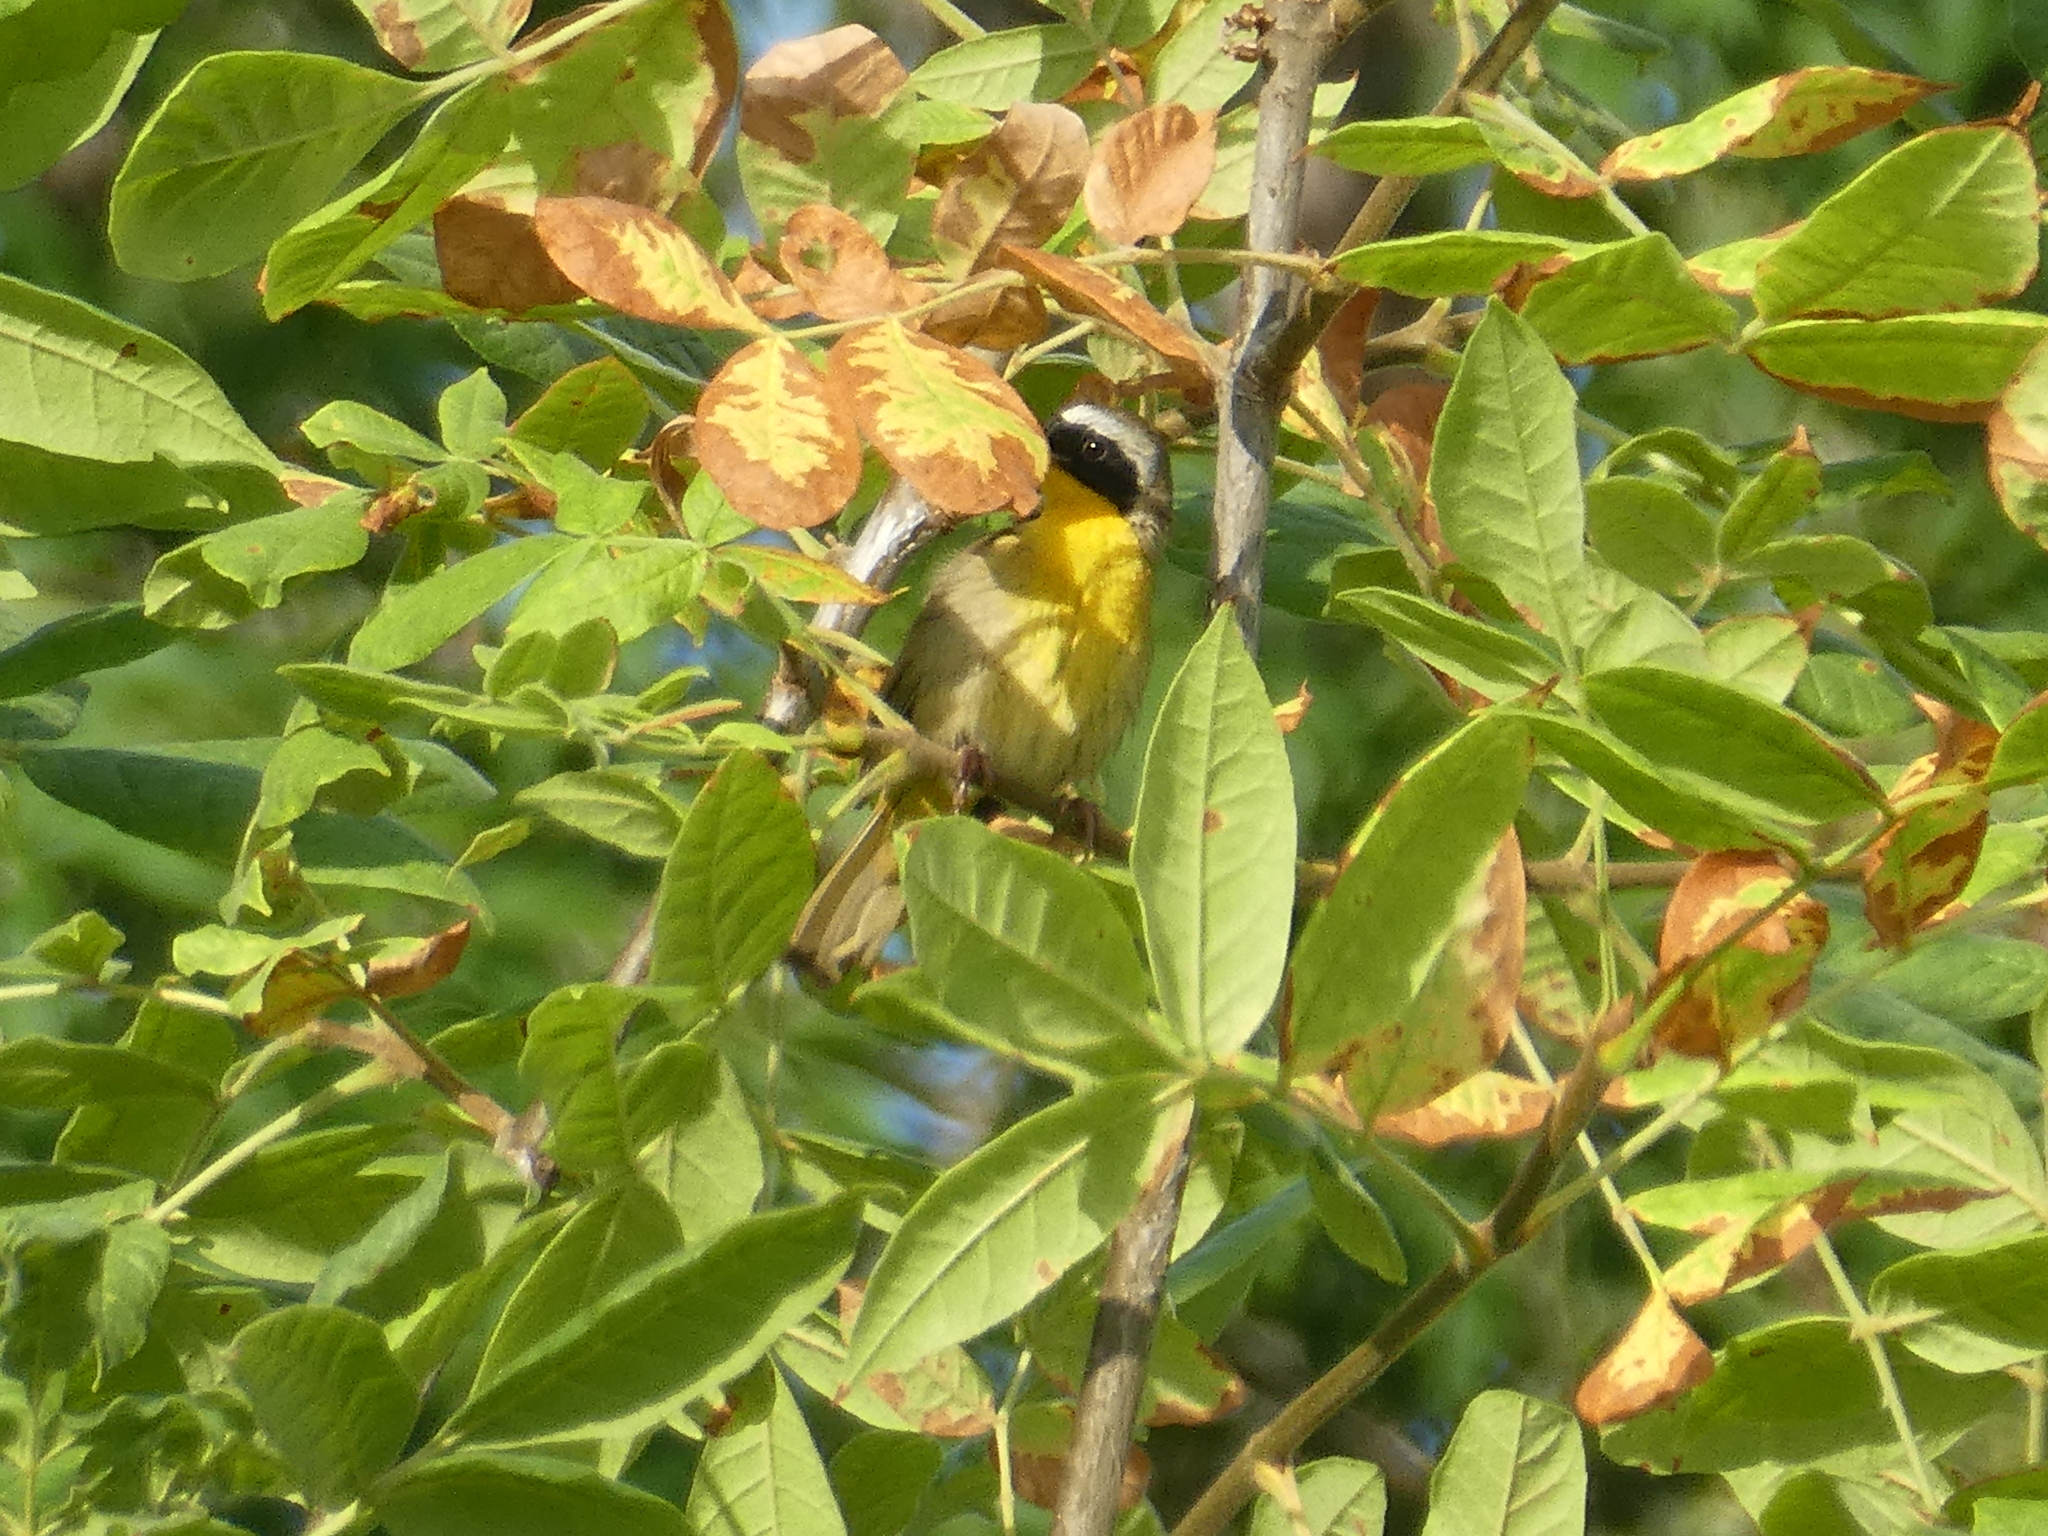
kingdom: Animalia
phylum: Chordata
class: Aves
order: Passeriformes
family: Parulidae
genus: Geothlypis
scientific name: Geothlypis trichas
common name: Common yellowthroat
